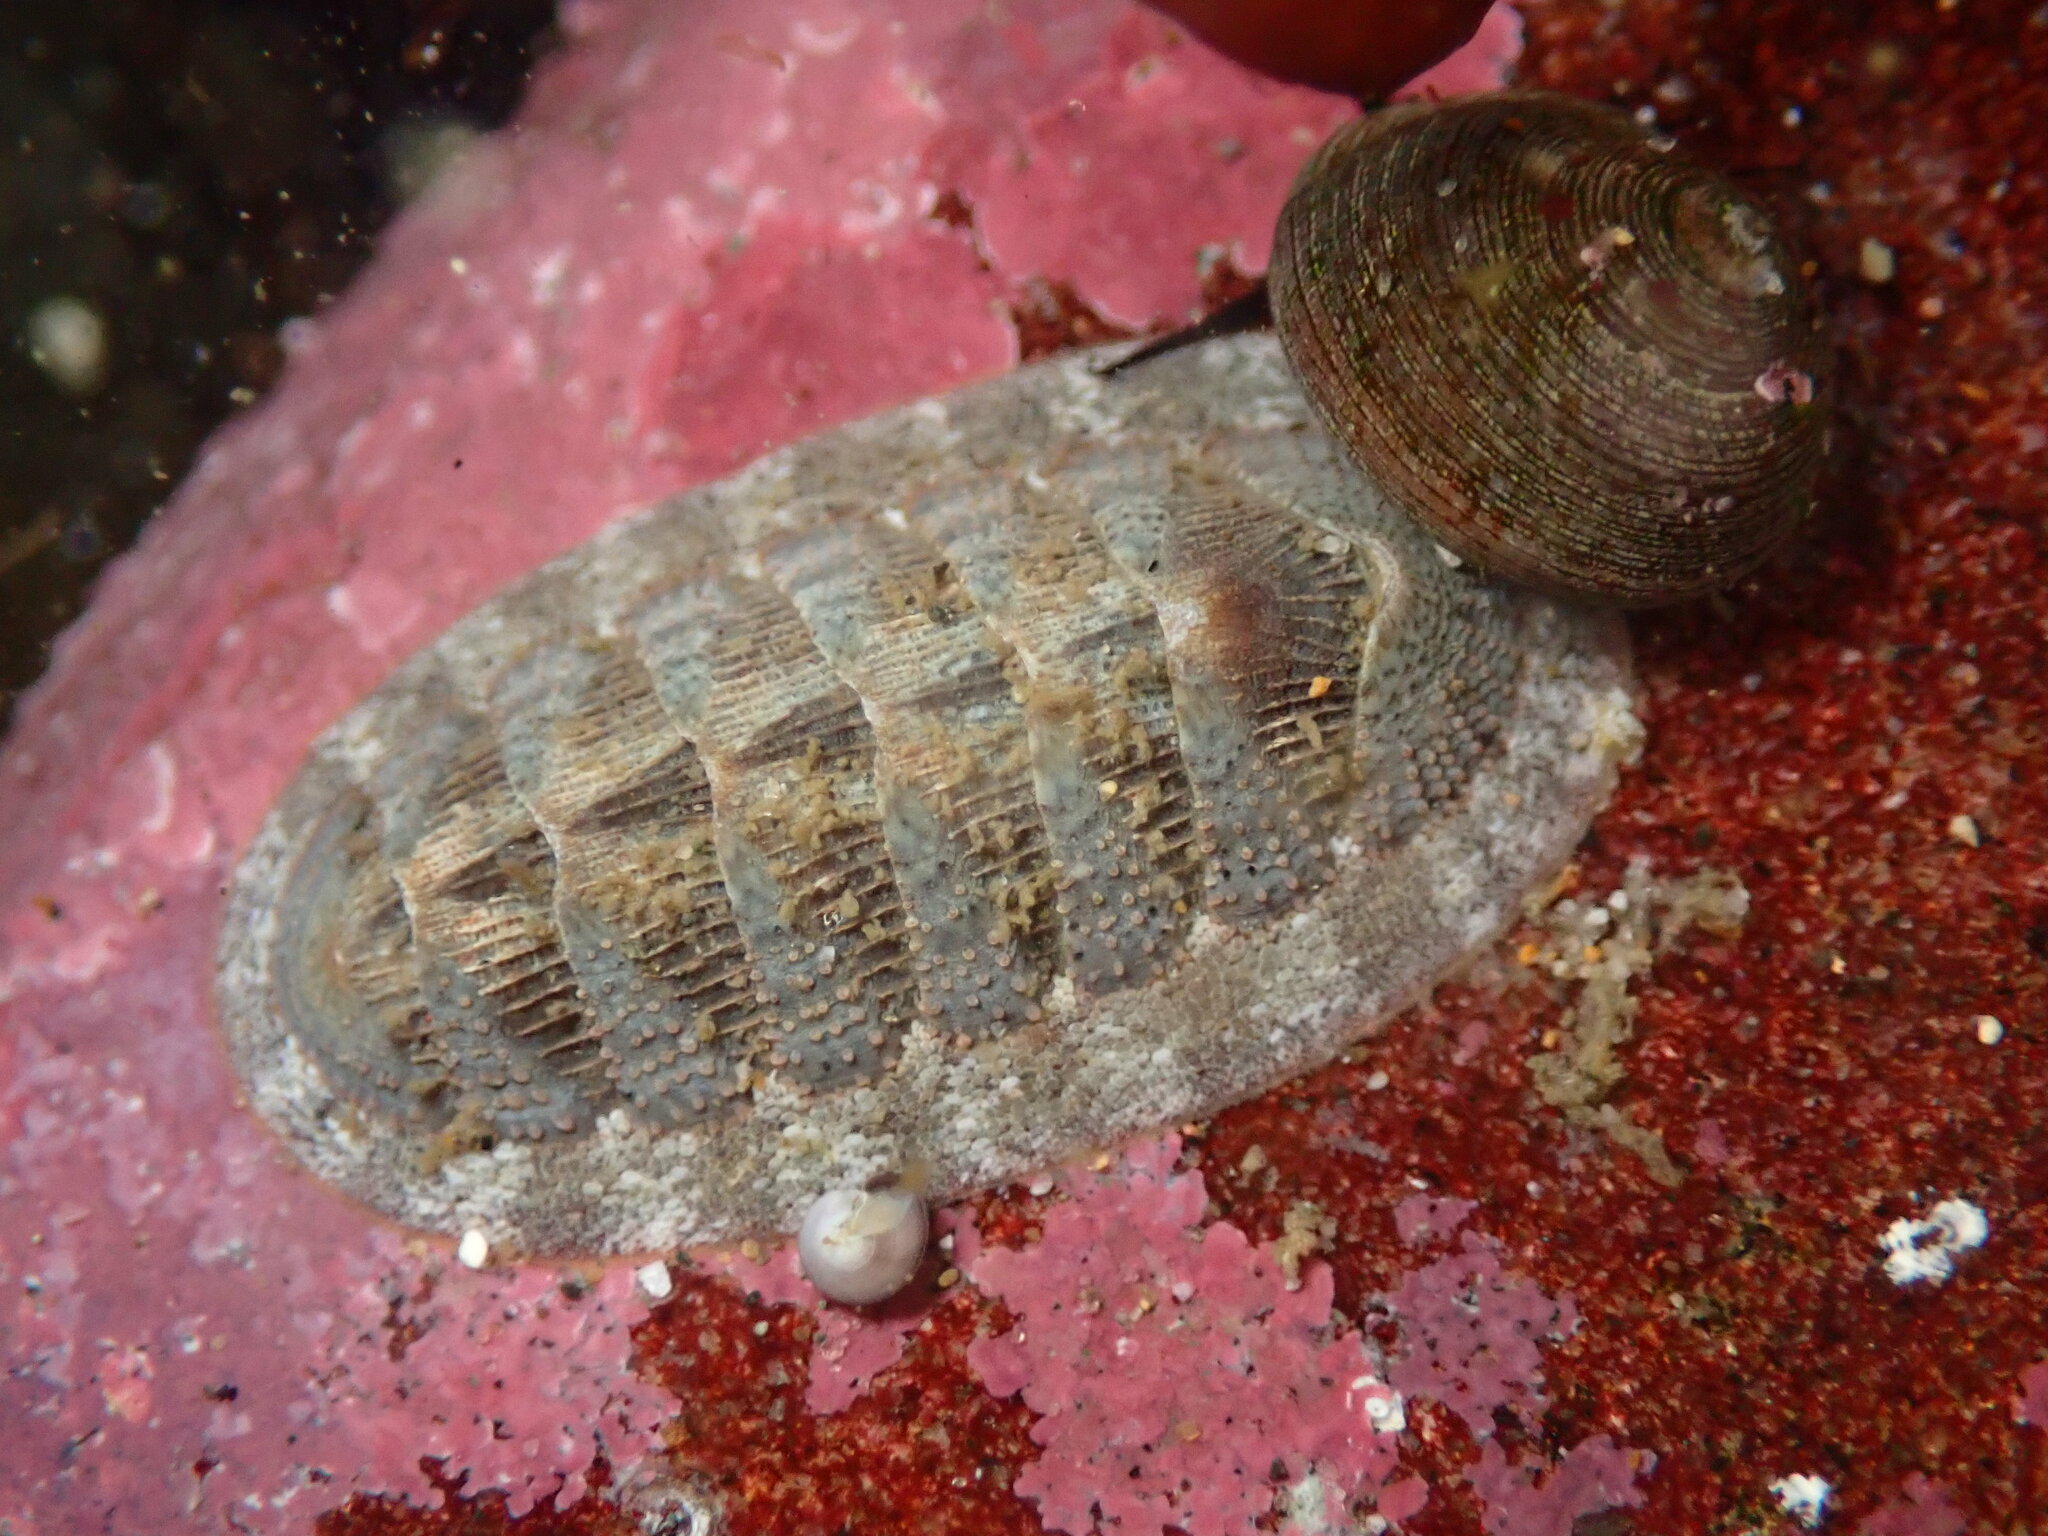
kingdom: Animalia
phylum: Mollusca
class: Polyplacophora
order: Chitonida
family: Ischnochitonidae
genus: Lepidozona
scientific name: Lepidozona cooperi
